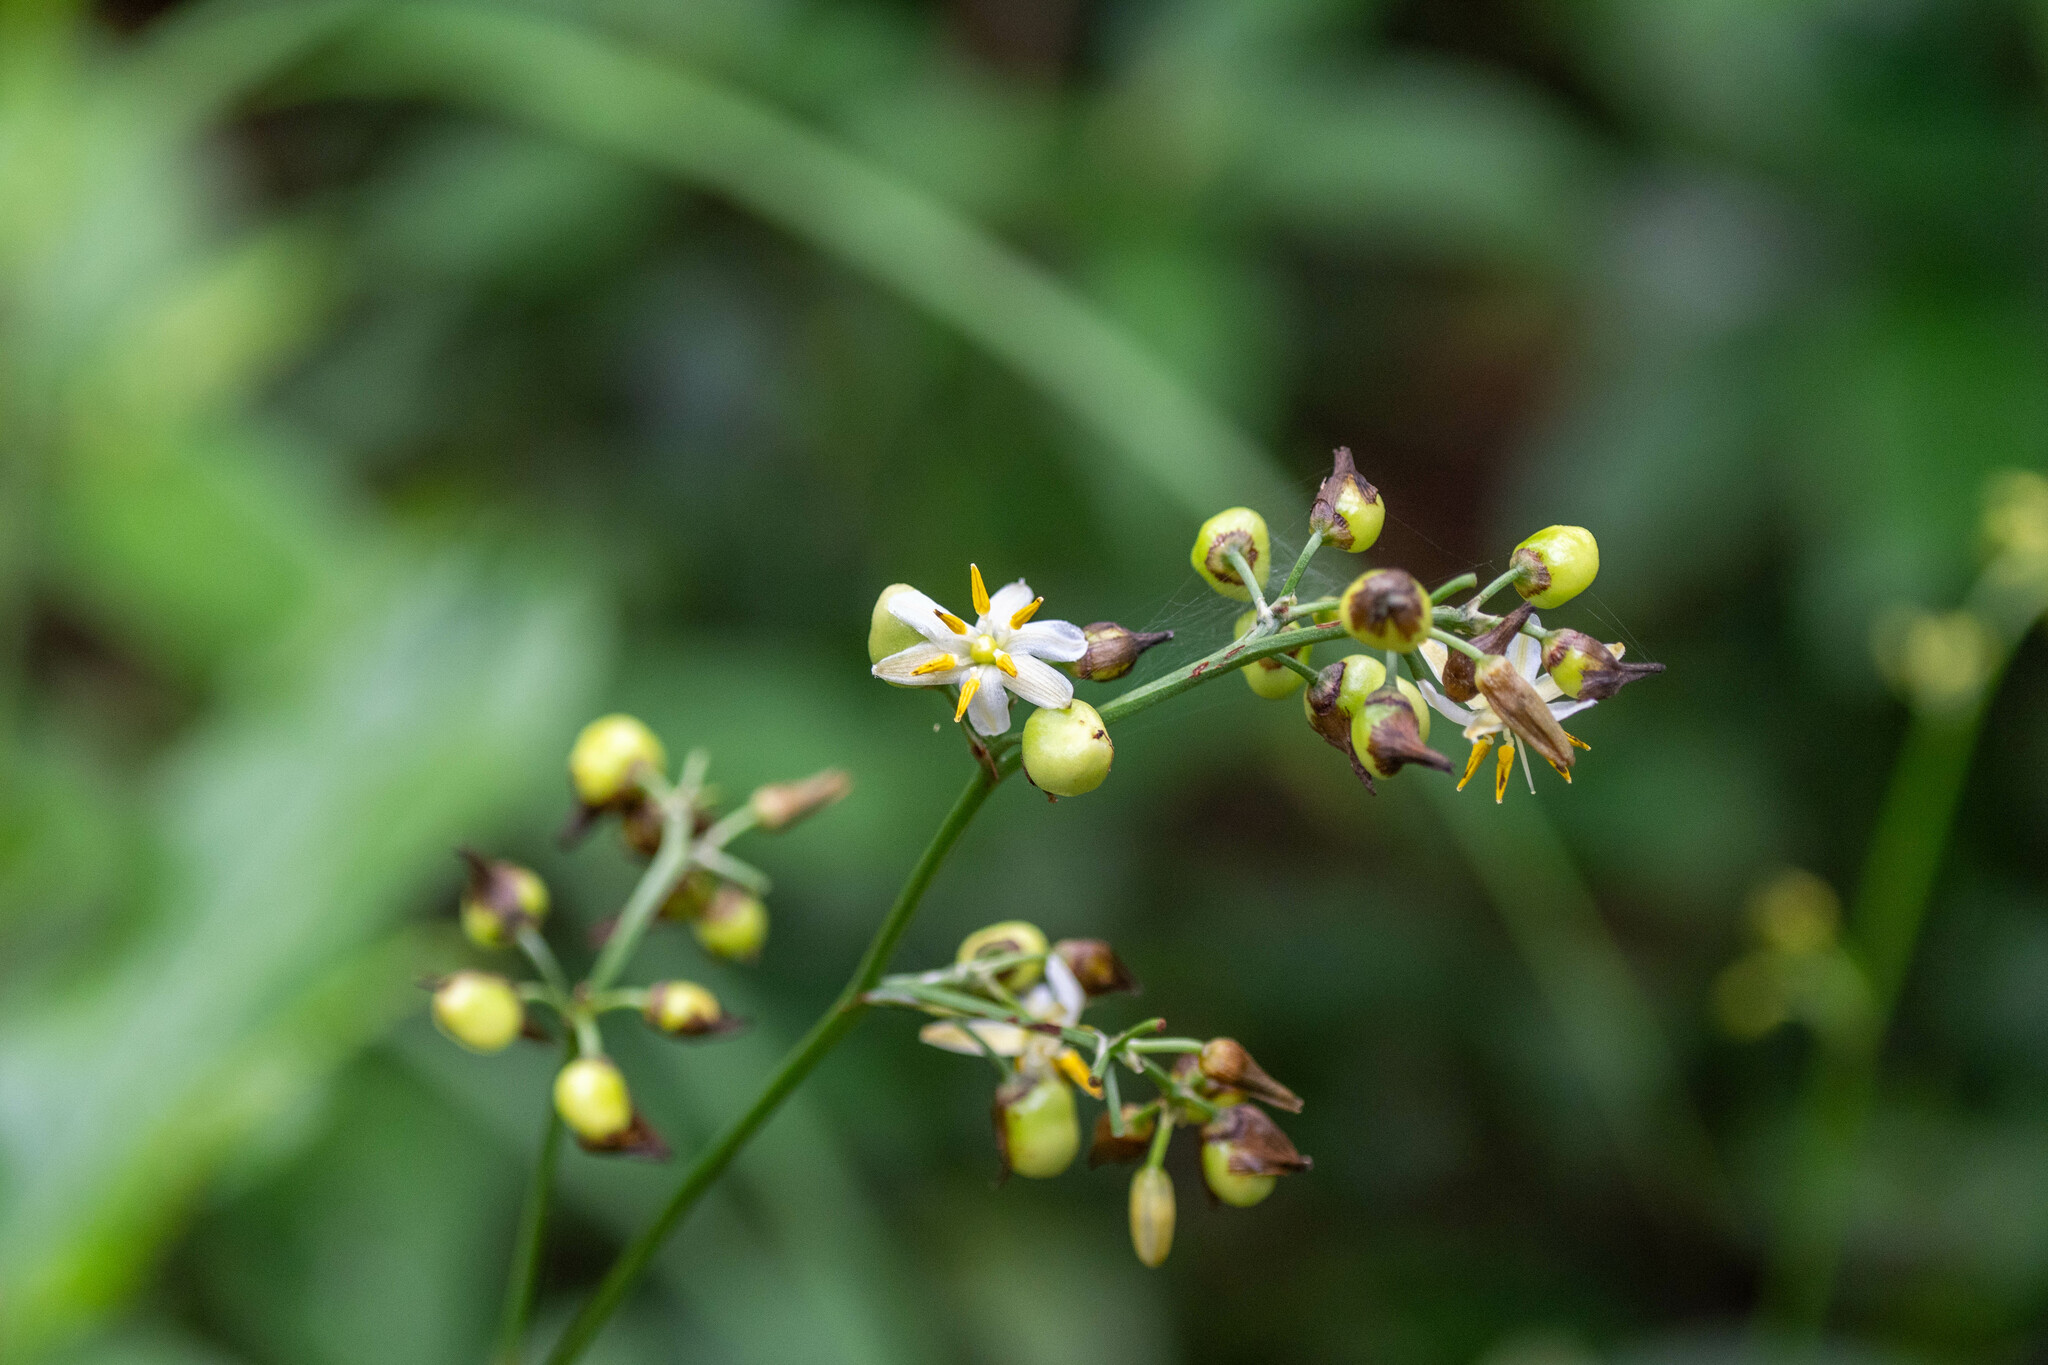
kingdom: Plantae
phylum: Tracheophyta
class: Liliopsida
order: Asparagales
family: Asphodelaceae
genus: Dianella
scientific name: Dianella ensifolia
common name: New zealand lilyplant
